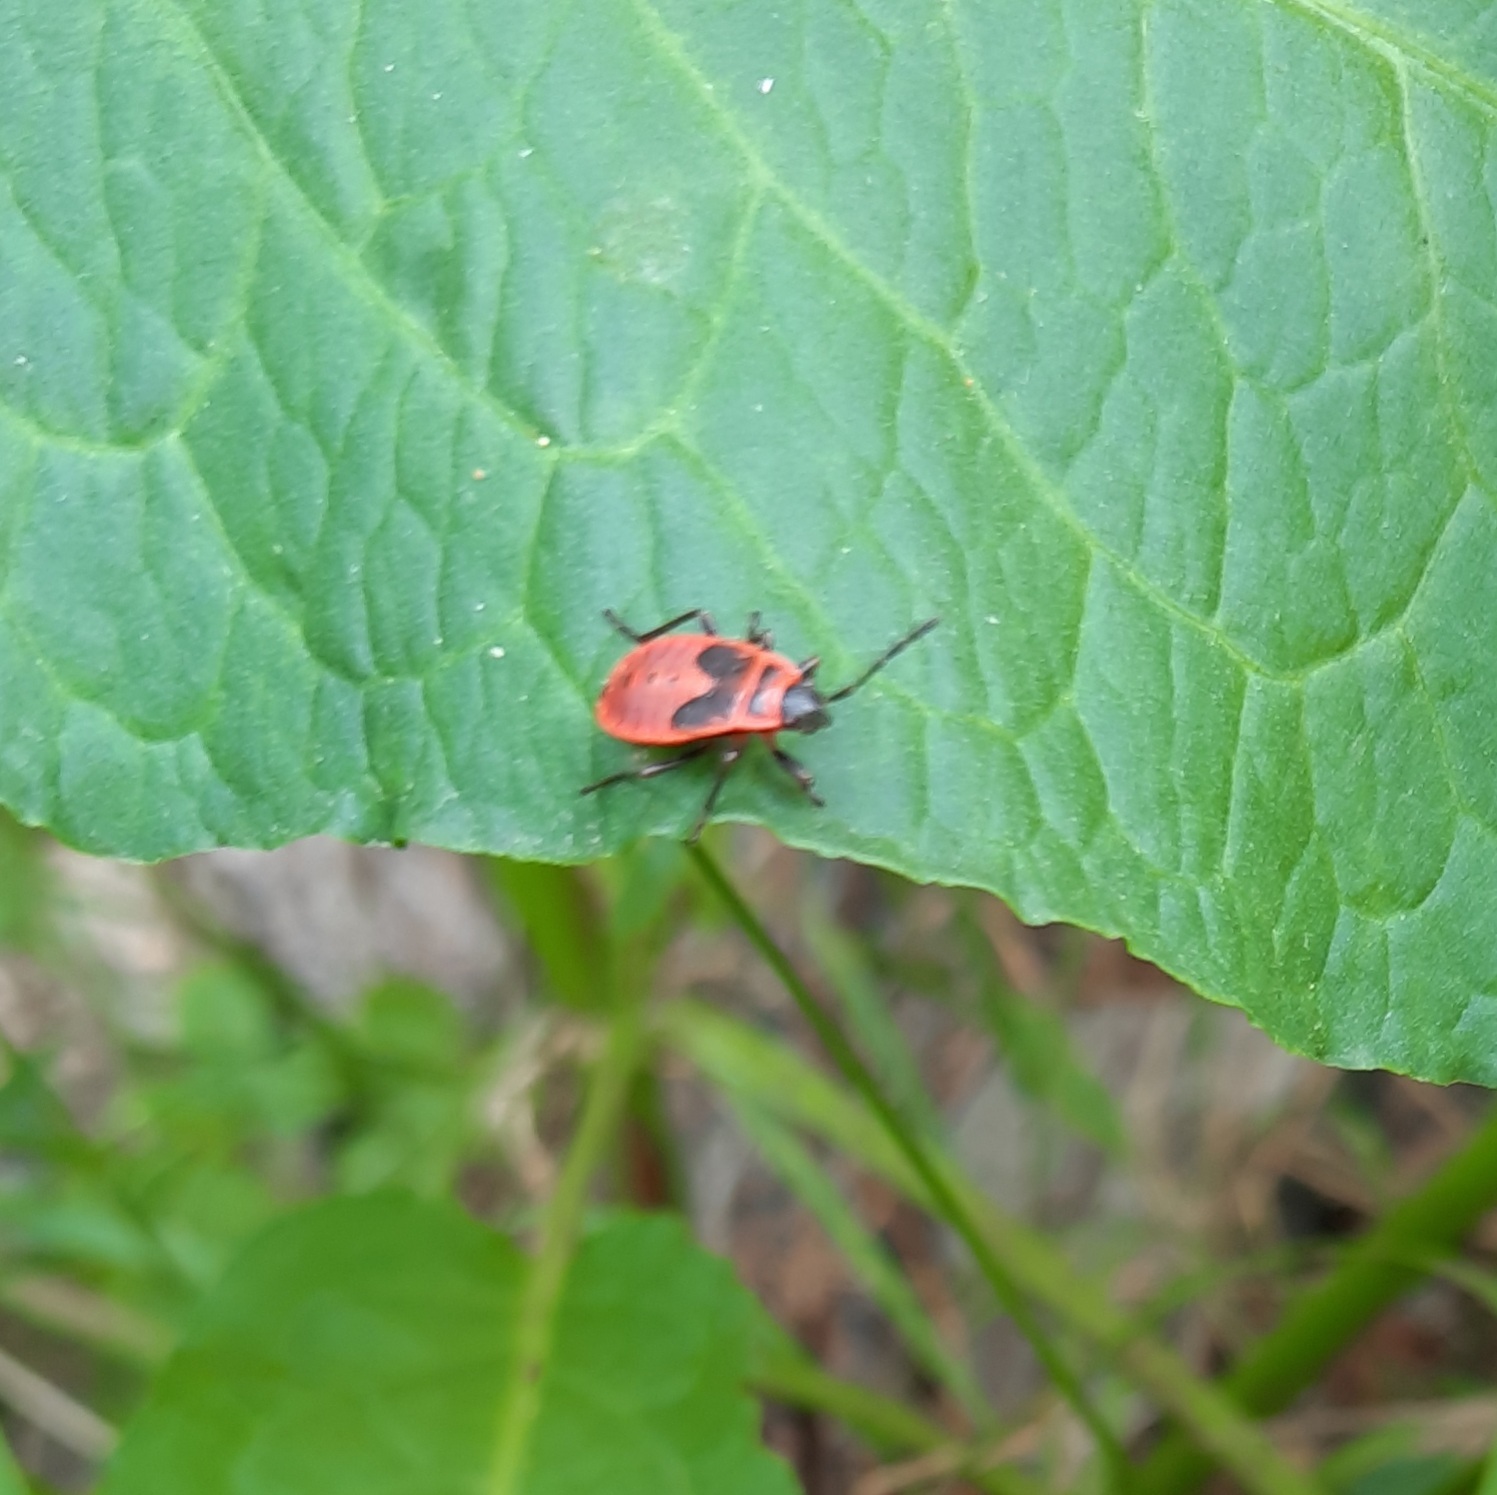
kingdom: Animalia
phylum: Arthropoda
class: Insecta
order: Hemiptera
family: Pyrrhocoridae
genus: Pyrrhocoris
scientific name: Pyrrhocoris apterus
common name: Firebug
